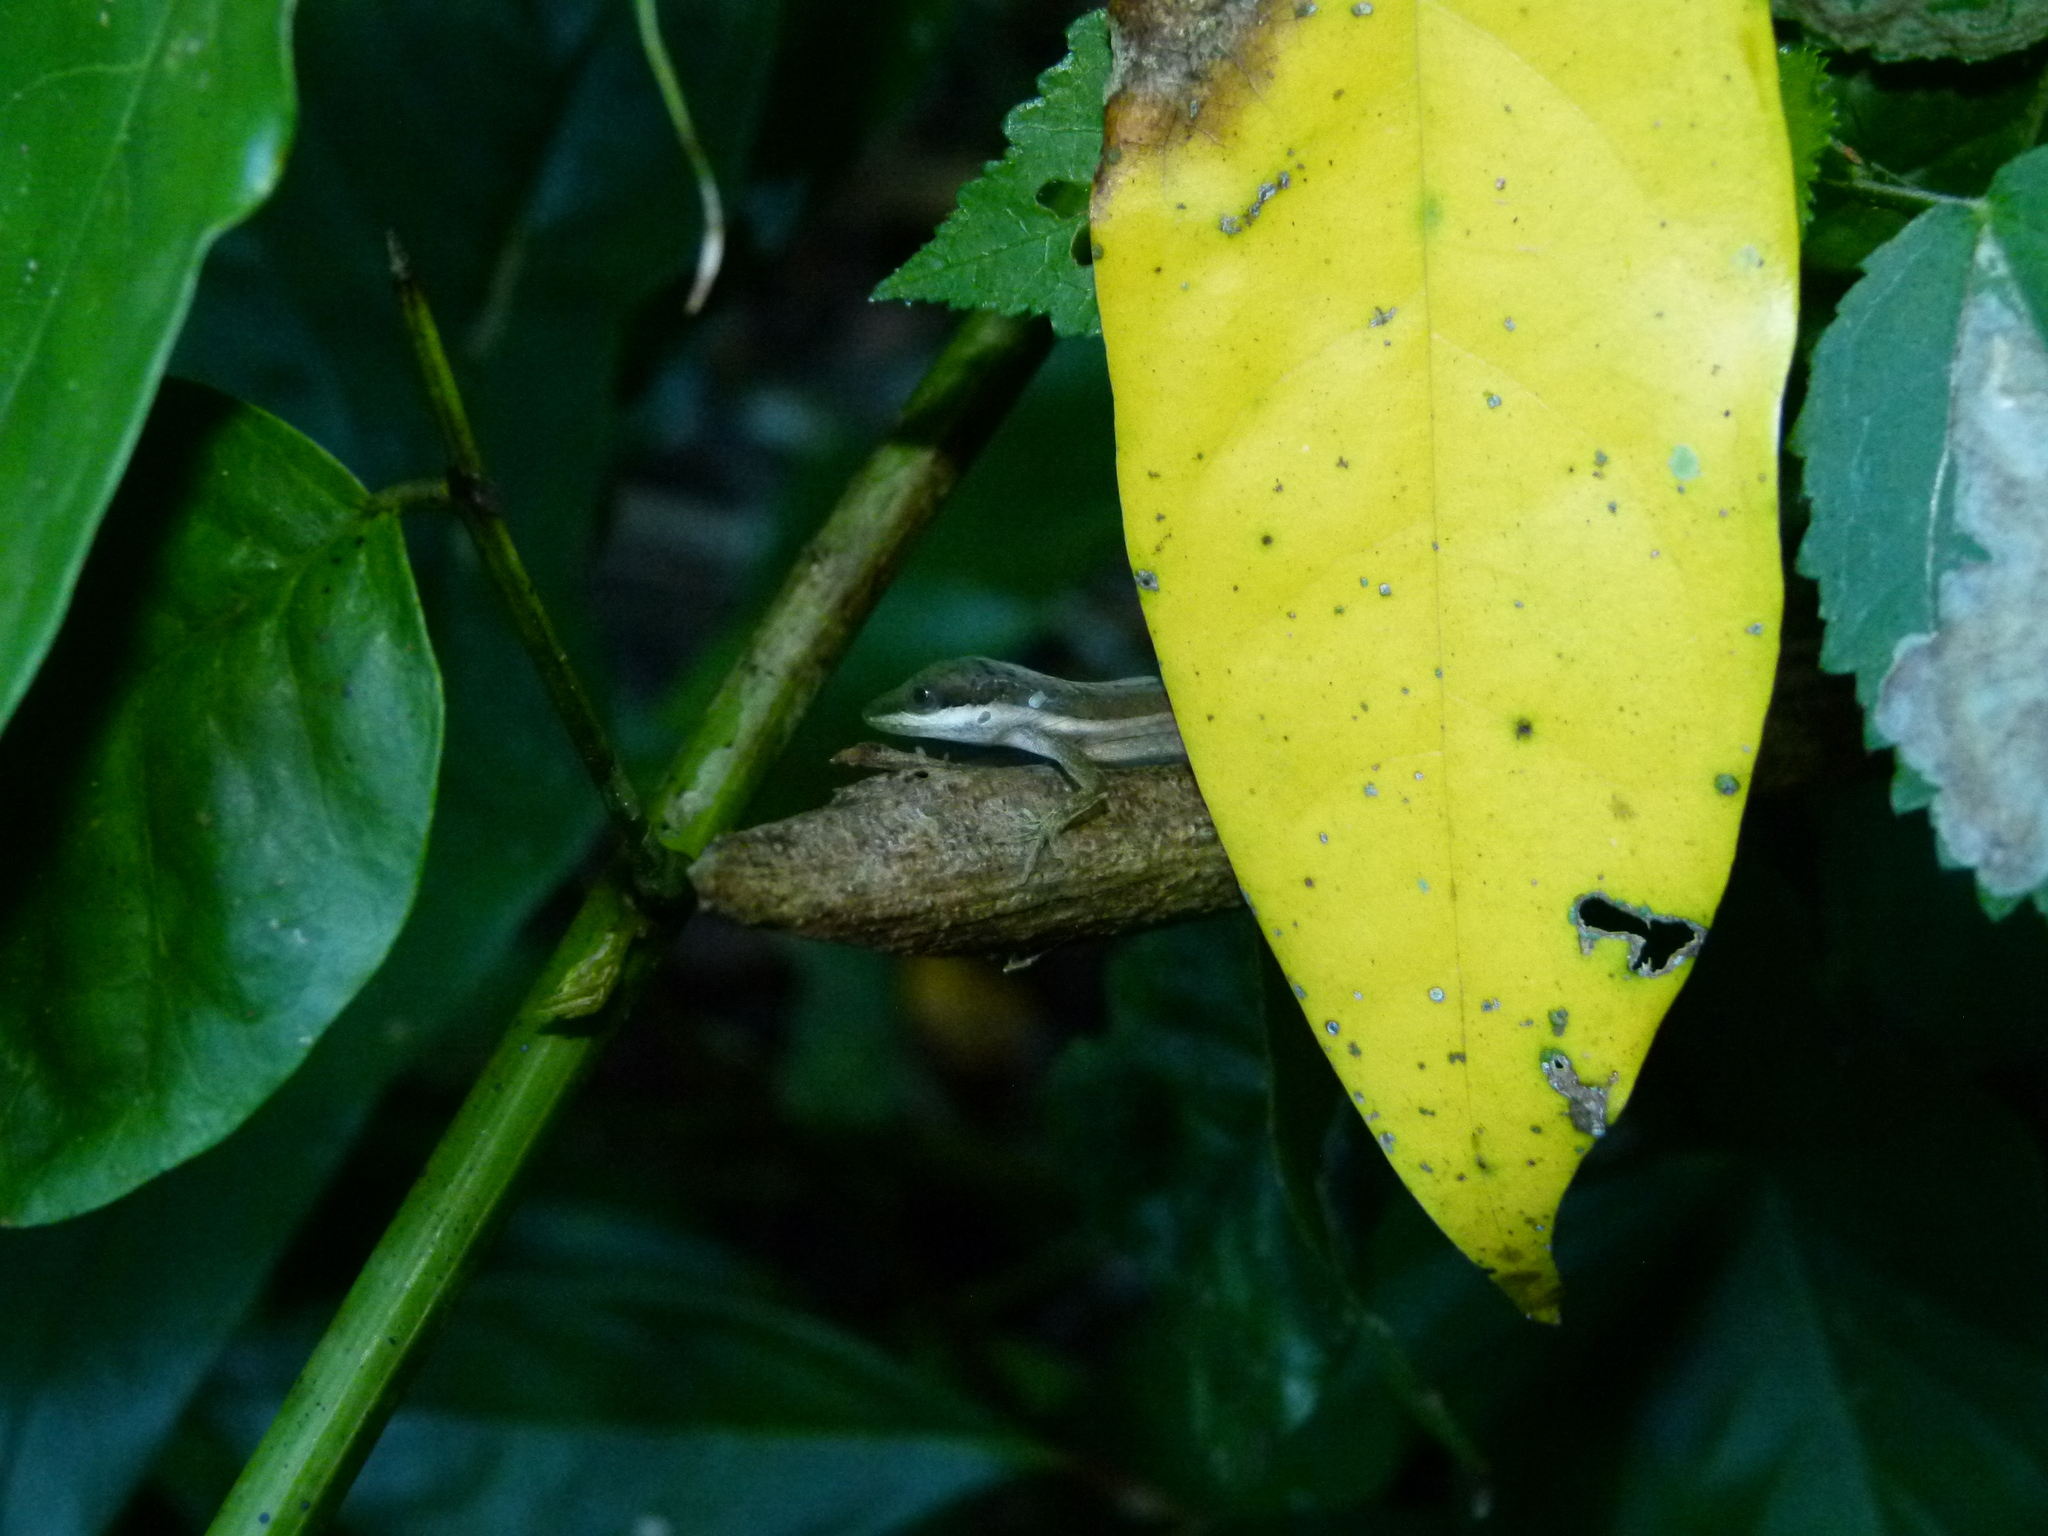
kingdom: Animalia
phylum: Chordata
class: Squamata
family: Dactyloidae
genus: Anolis
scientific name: Anolis krugi
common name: Krug's anole
